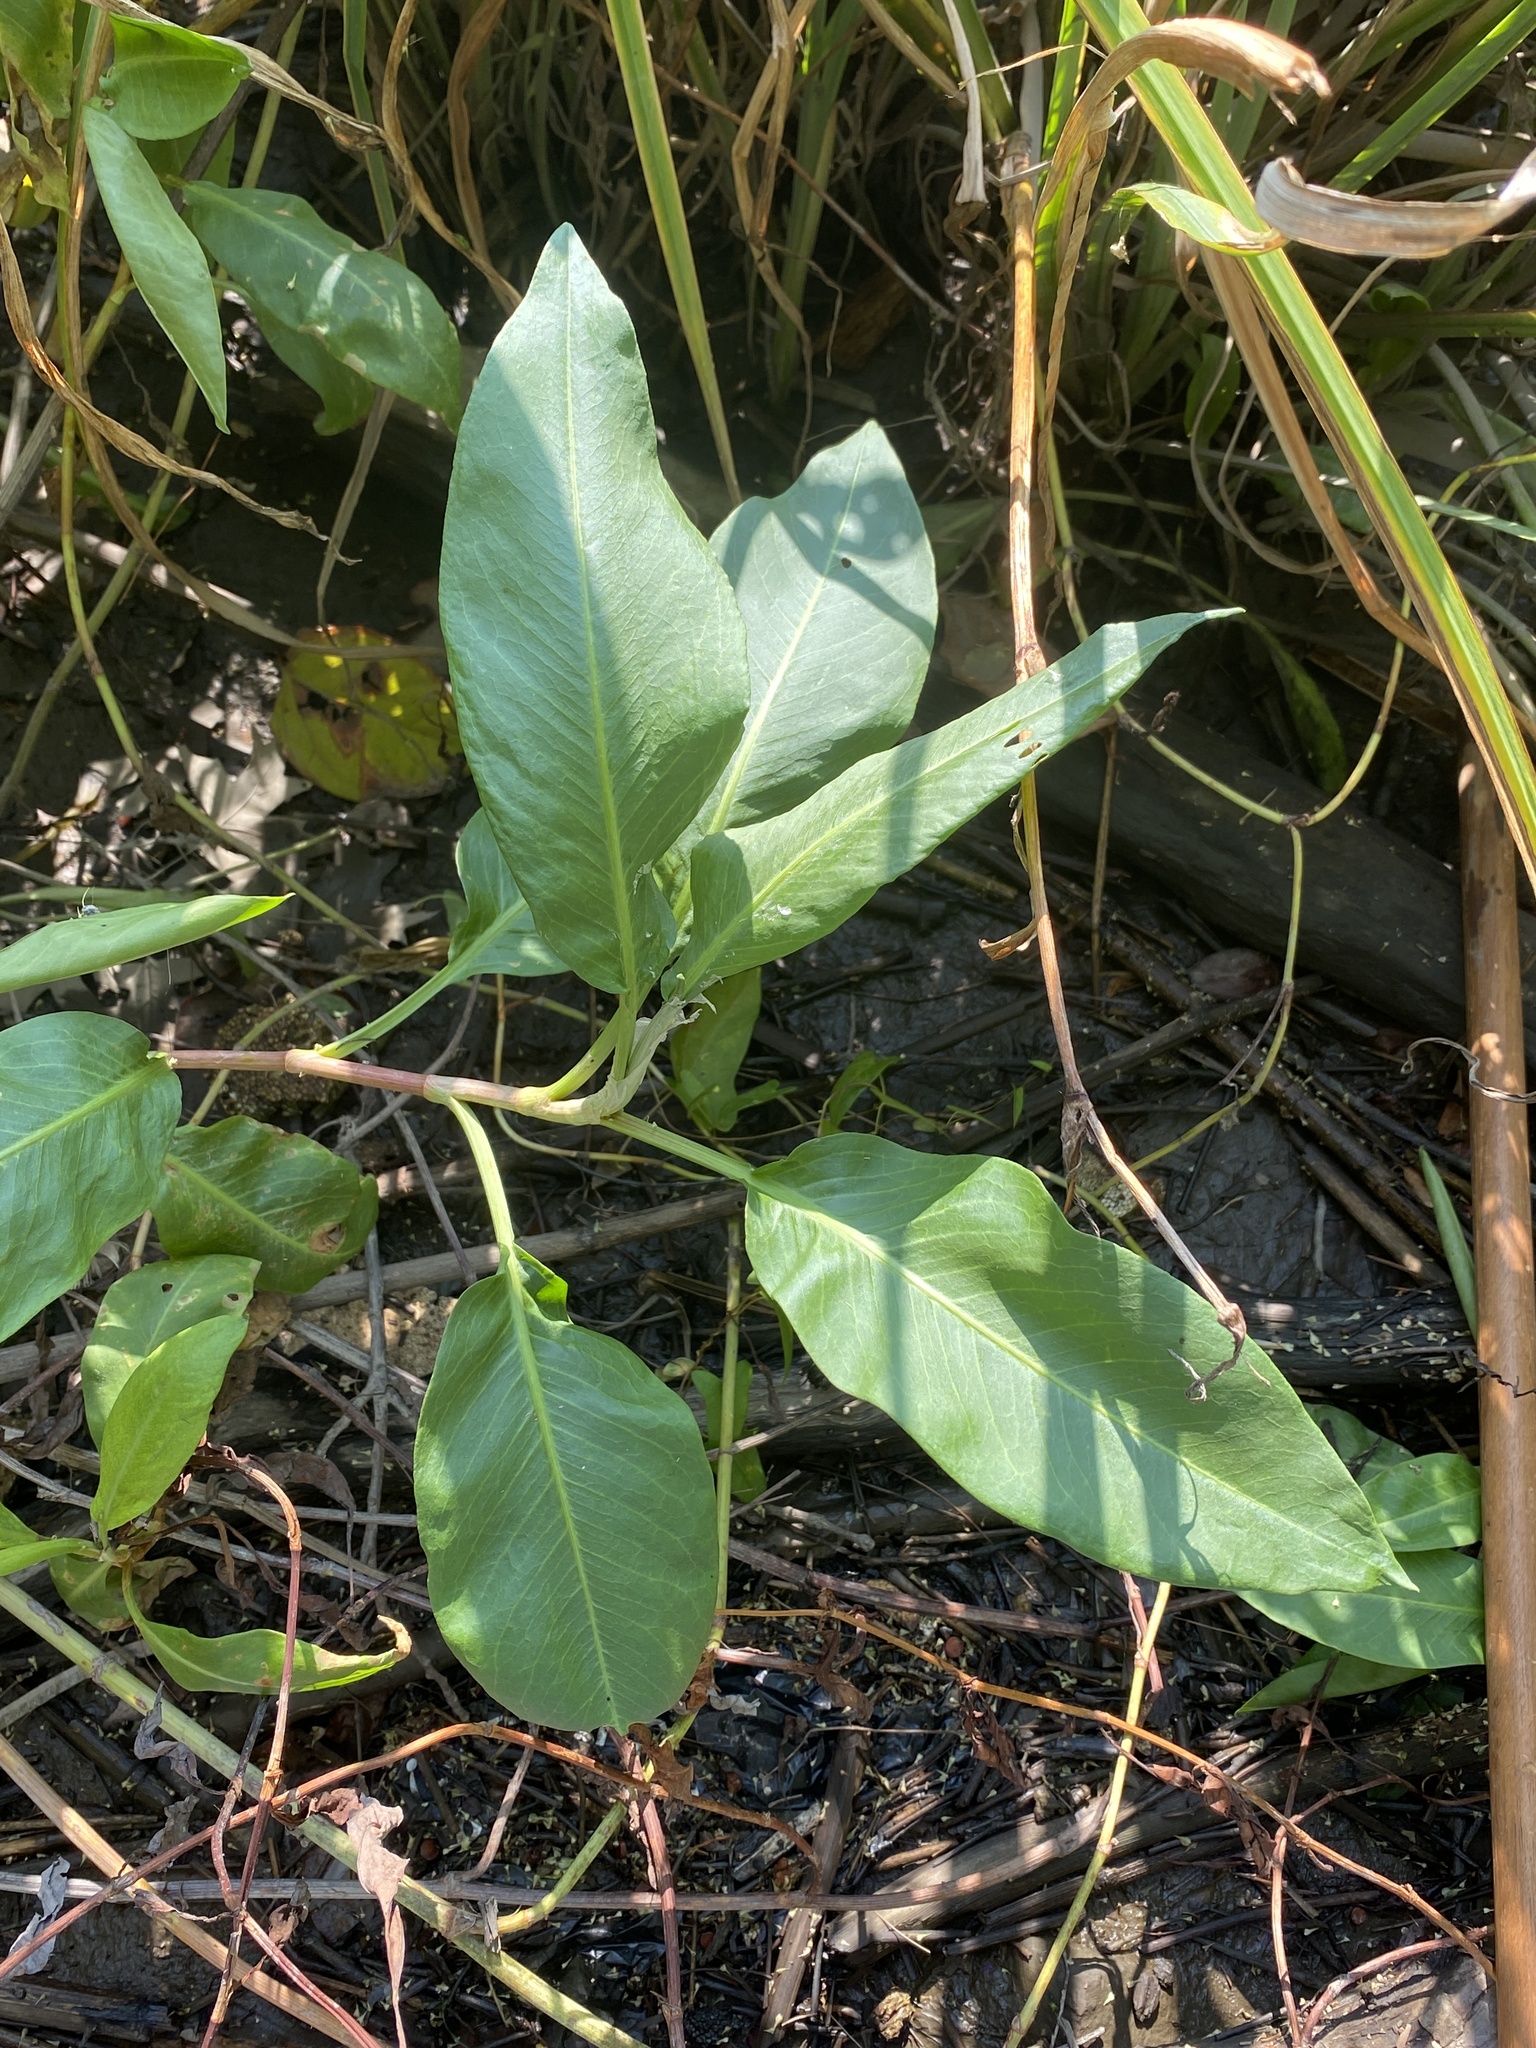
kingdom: Plantae
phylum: Tracheophyta
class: Magnoliopsida
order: Caryophyllales
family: Polygonaceae
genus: Persicaria
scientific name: Persicaria amphibia
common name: Amphibious bistort
